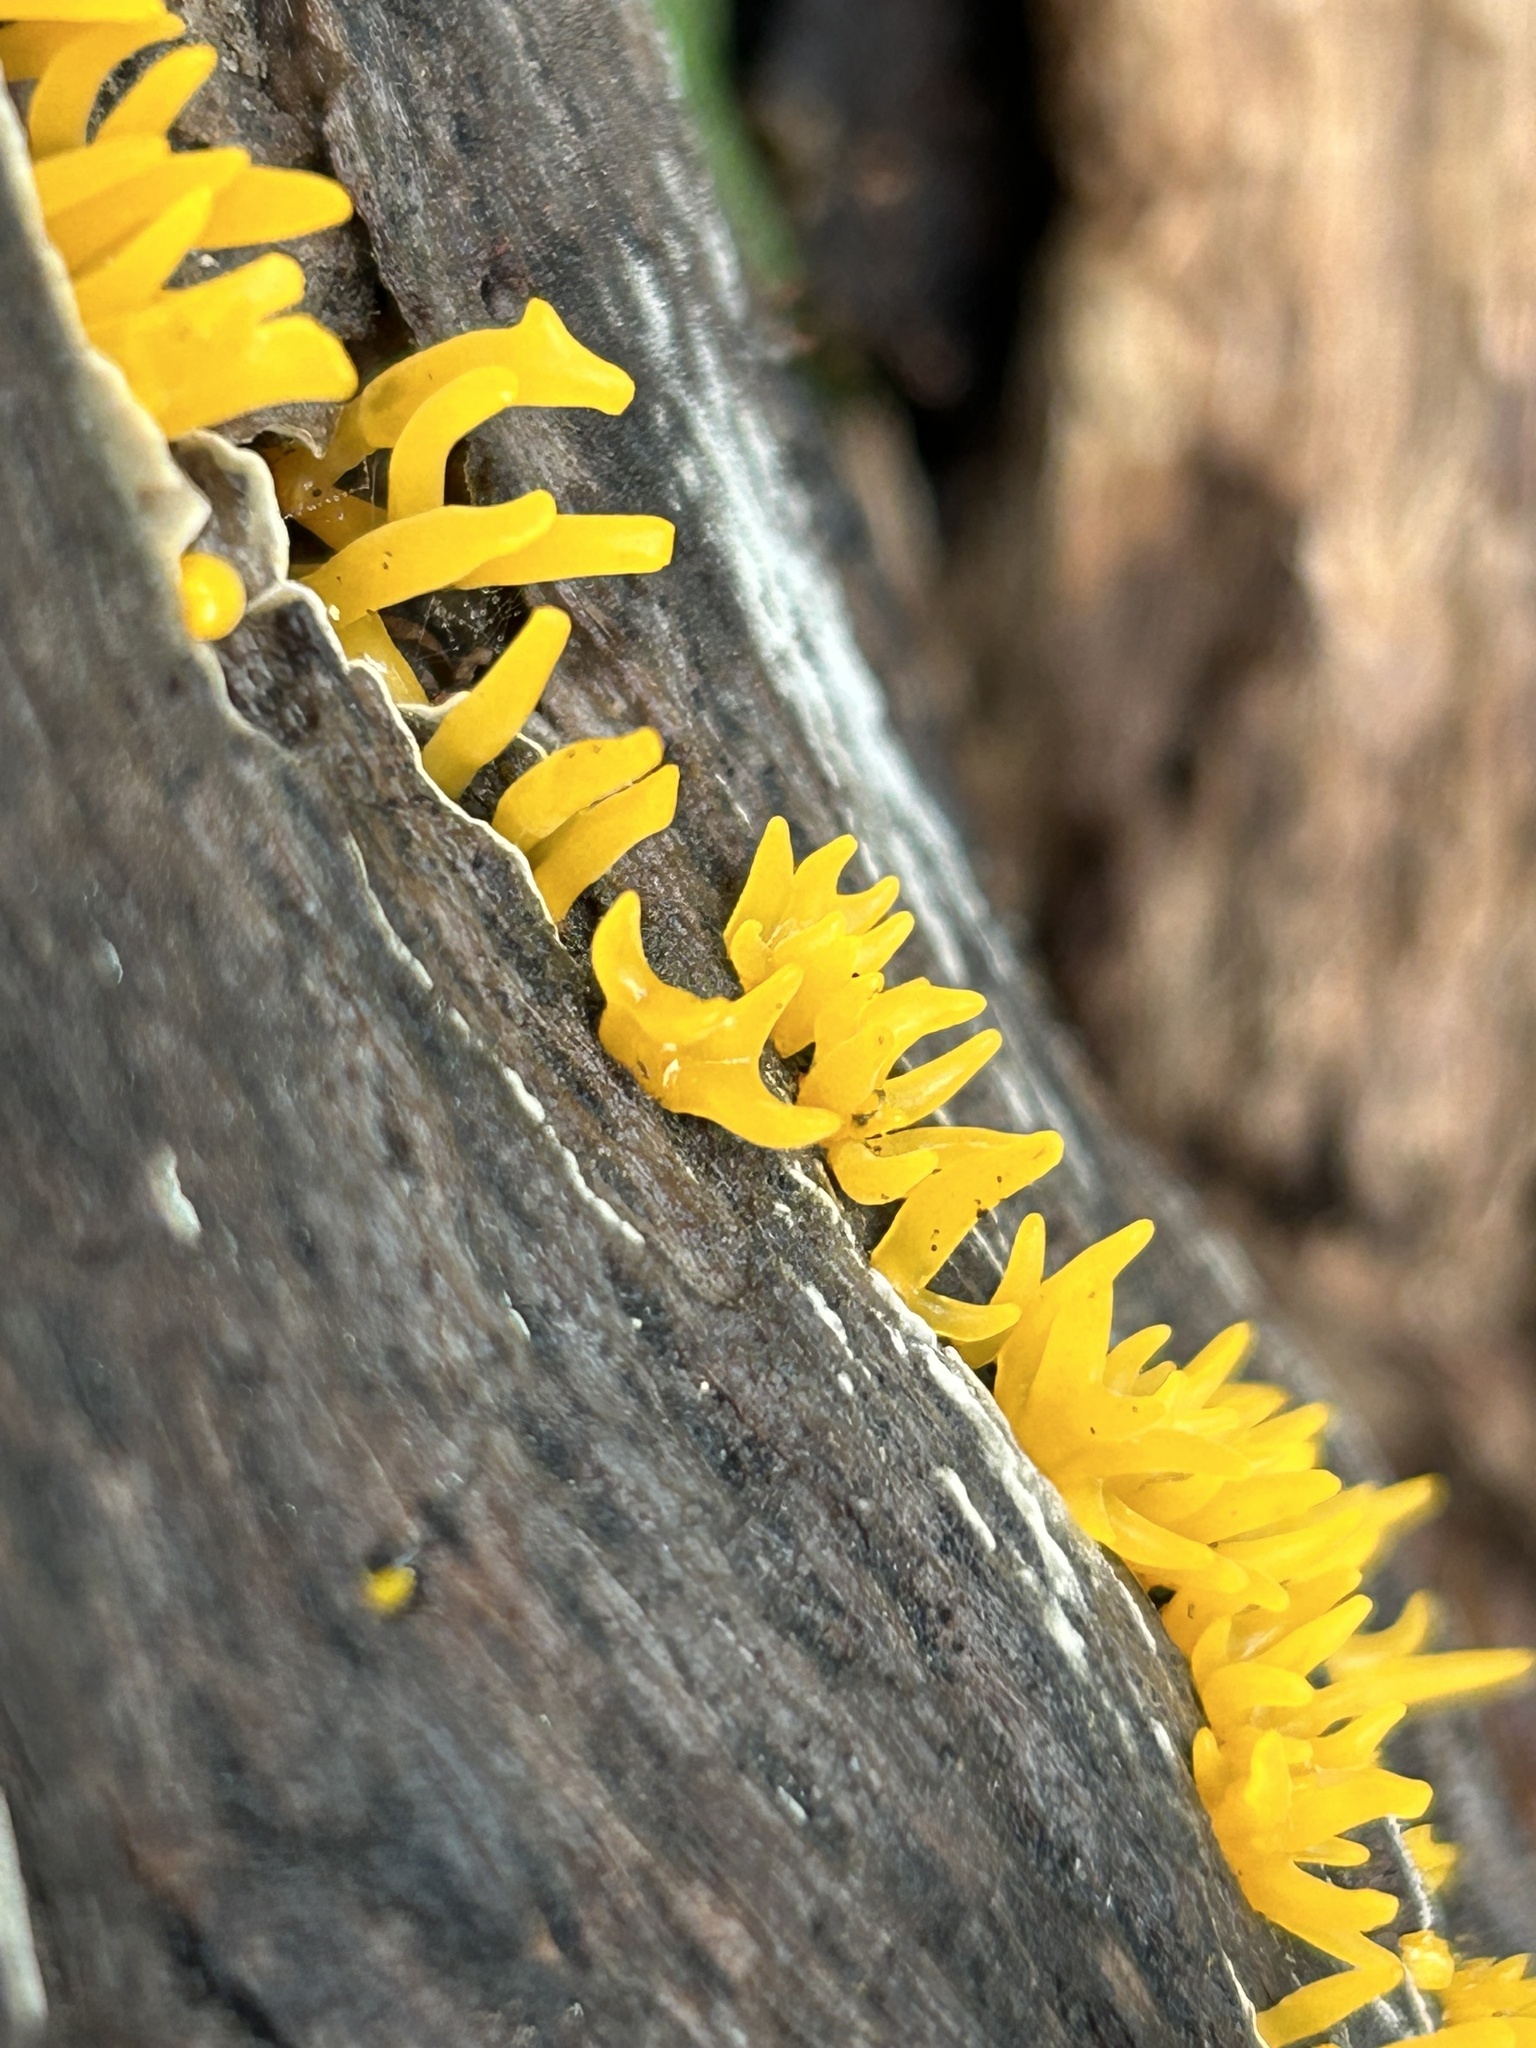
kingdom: Fungi
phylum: Basidiomycota
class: Dacrymycetes
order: Dacrymycetales
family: Dacrymycetaceae
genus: Calocera
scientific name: Calocera cornea
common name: Small stagshorn
